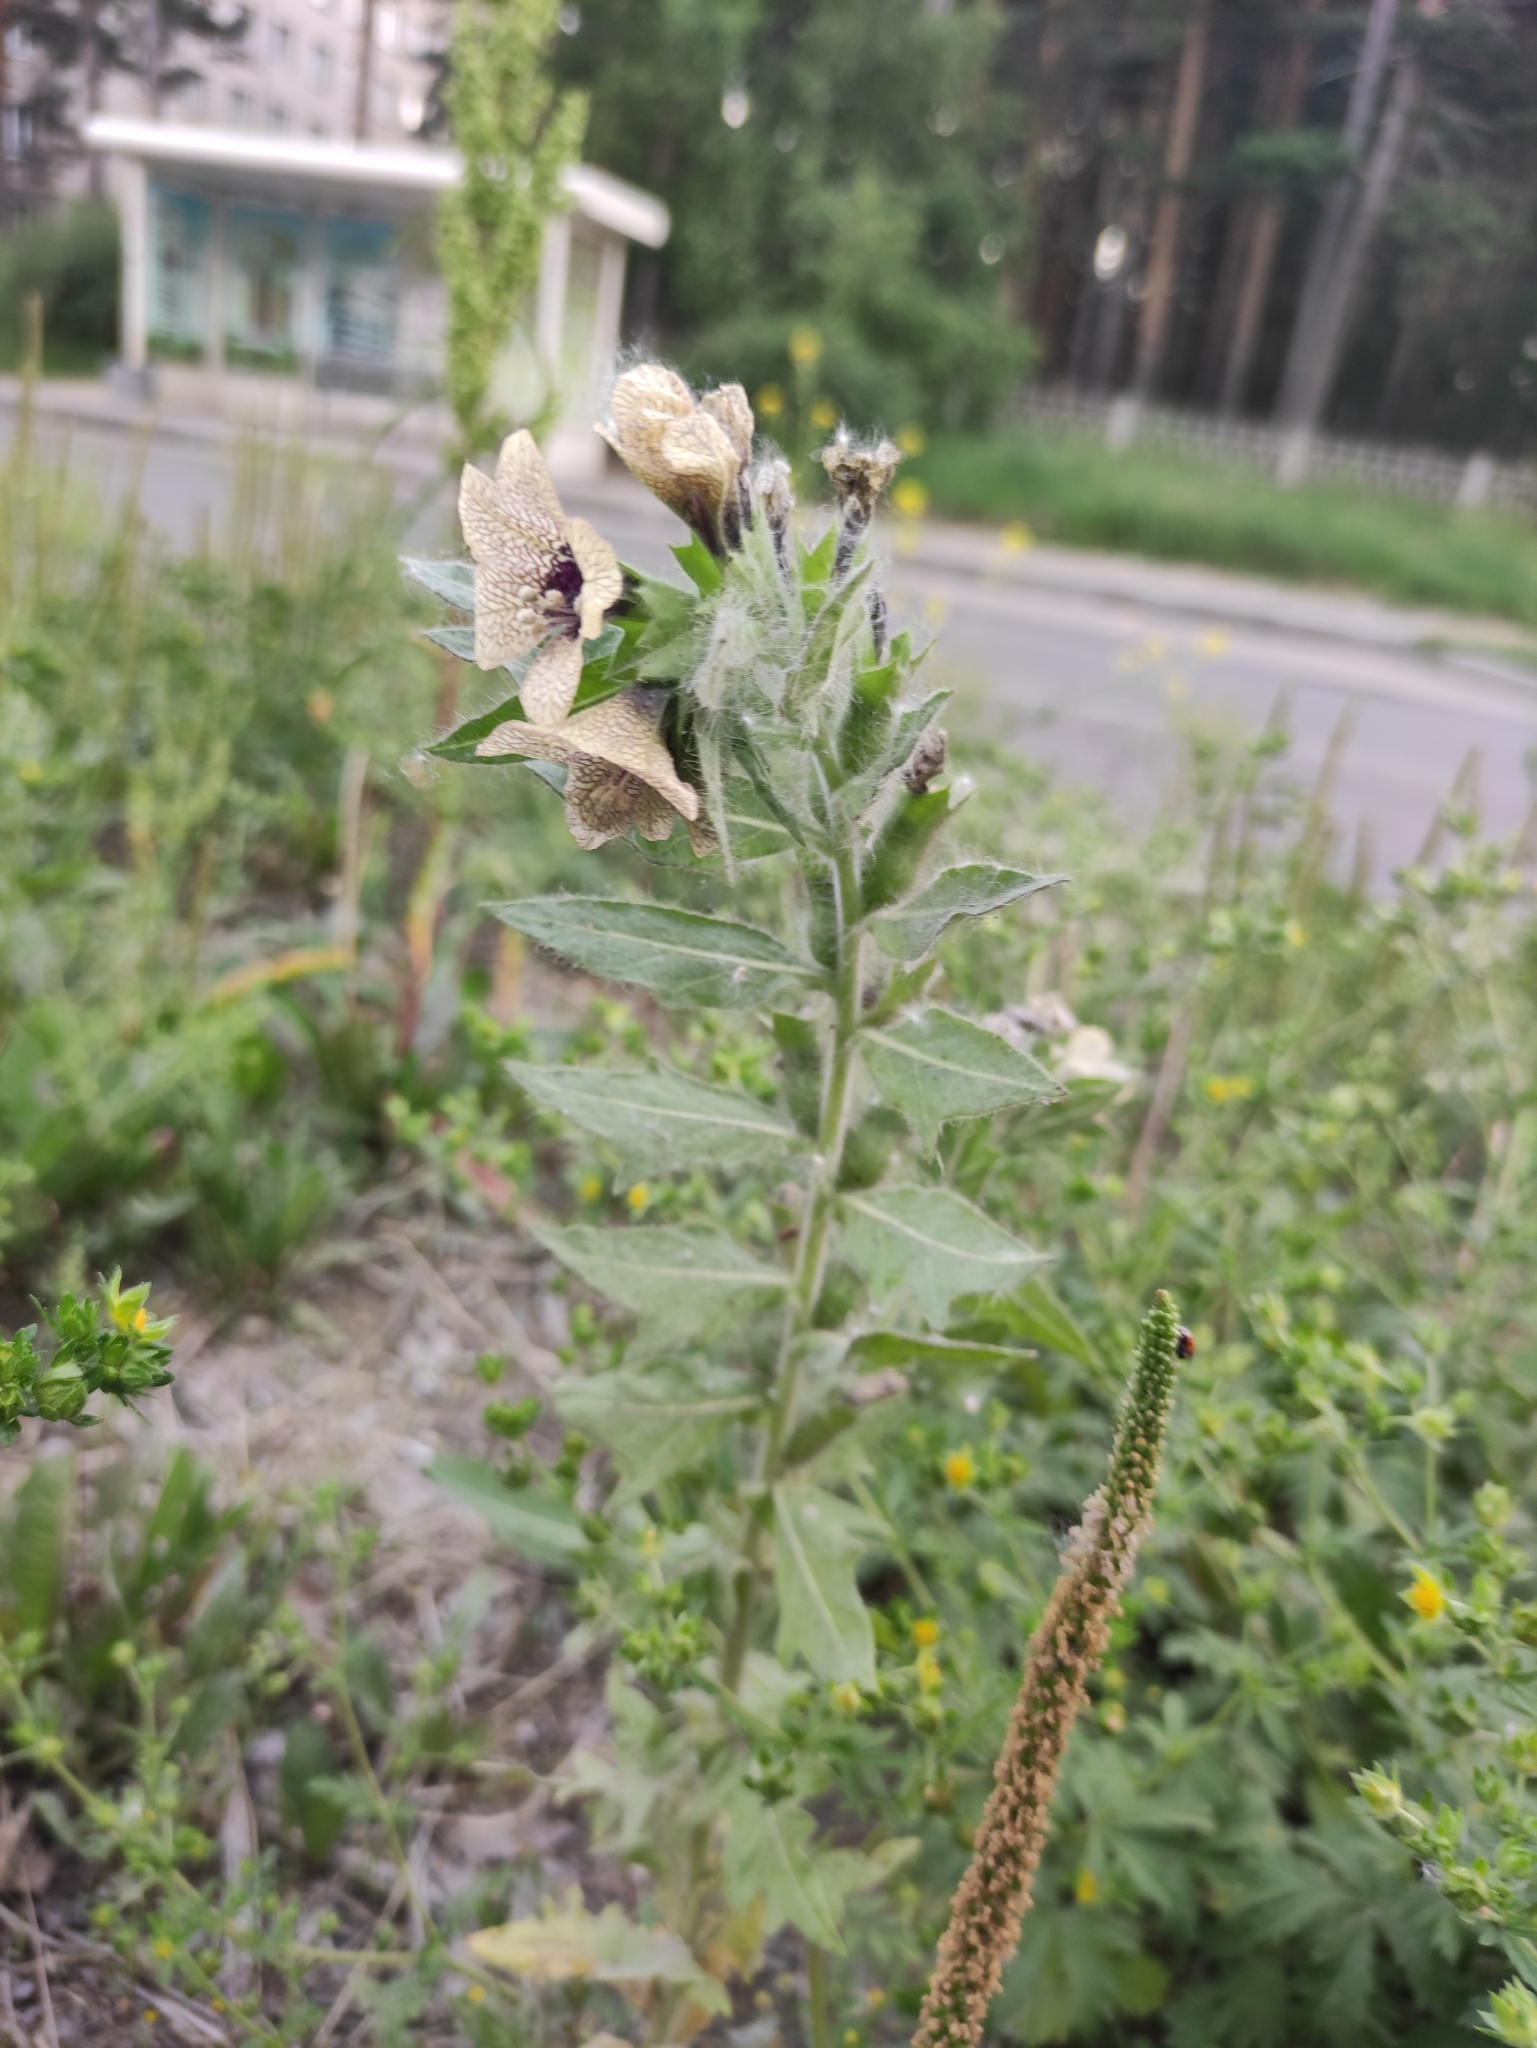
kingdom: Plantae
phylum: Tracheophyta
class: Magnoliopsida
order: Solanales
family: Solanaceae
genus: Hyoscyamus
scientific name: Hyoscyamus niger
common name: Henbane
